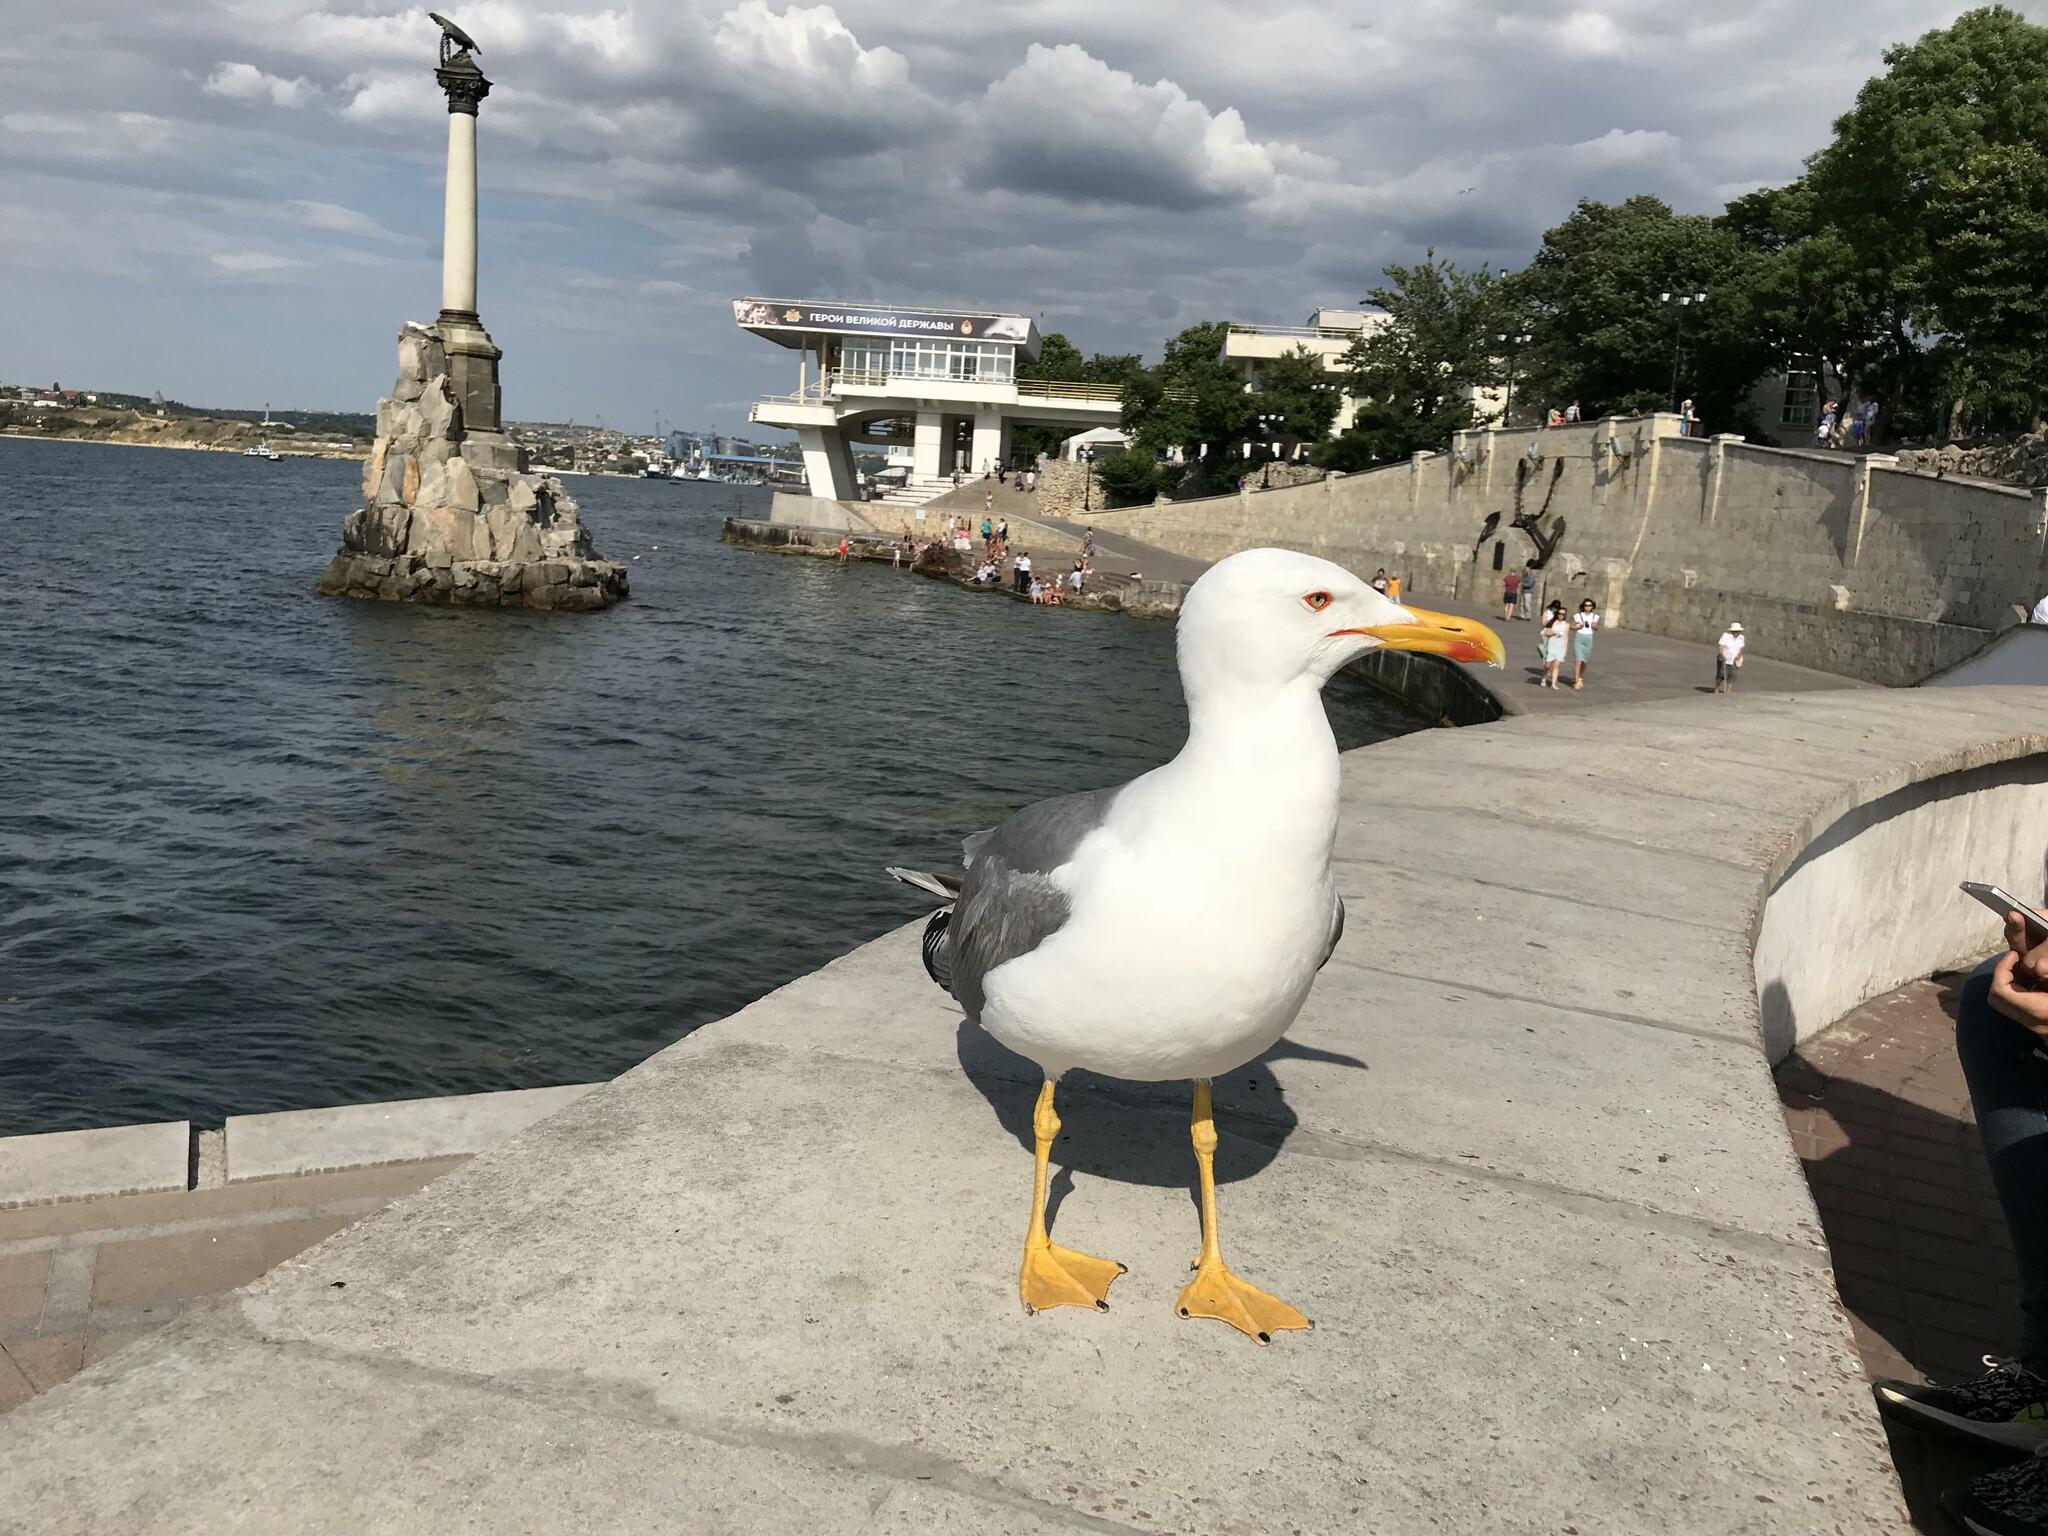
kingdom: Animalia
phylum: Chordata
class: Aves
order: Charadriiformes
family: Laridae
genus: Larus
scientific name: Larus michahellis
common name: Yellow-legged gull
